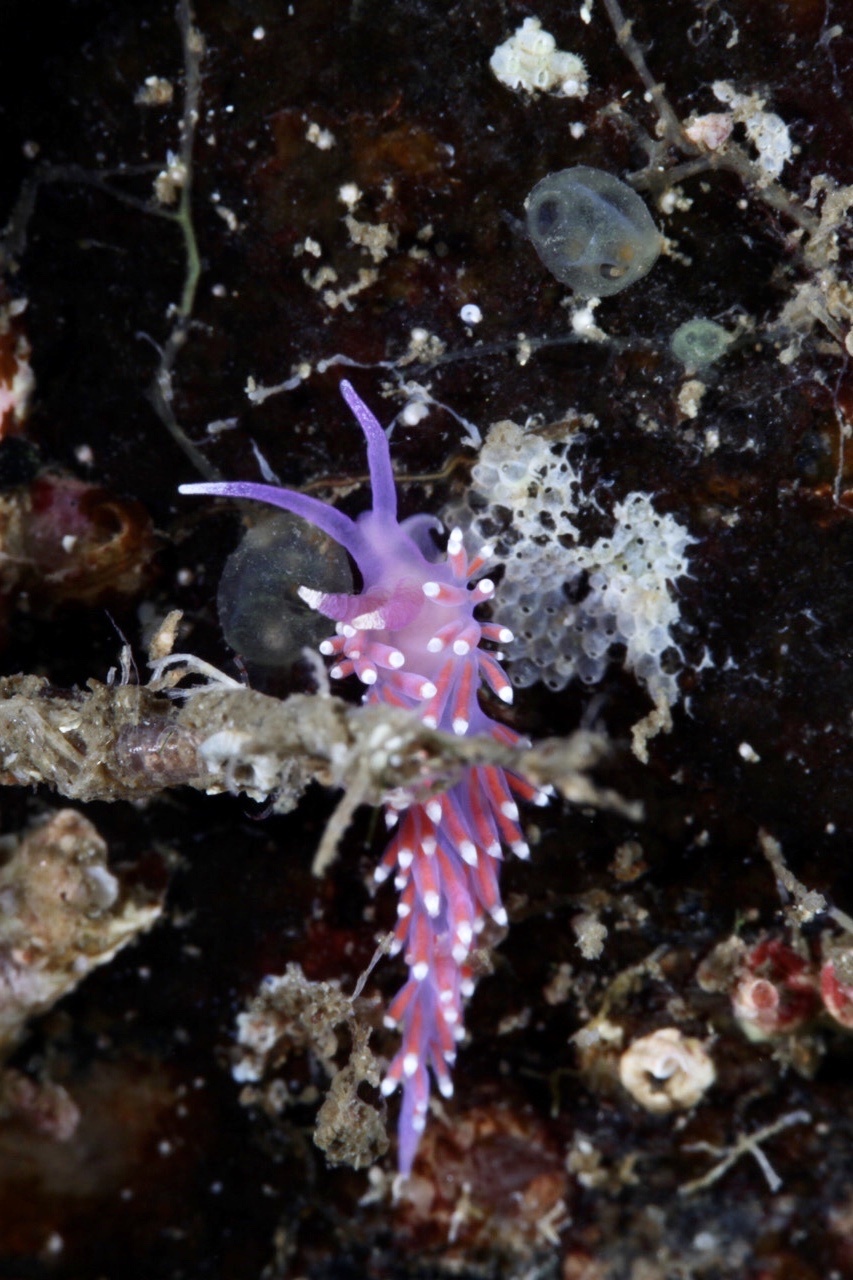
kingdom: Animalia
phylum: Mollusca
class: Gastropoda
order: Nudibranchia
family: Flabellinidae
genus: Edmundsella
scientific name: Edmundsella pedata
